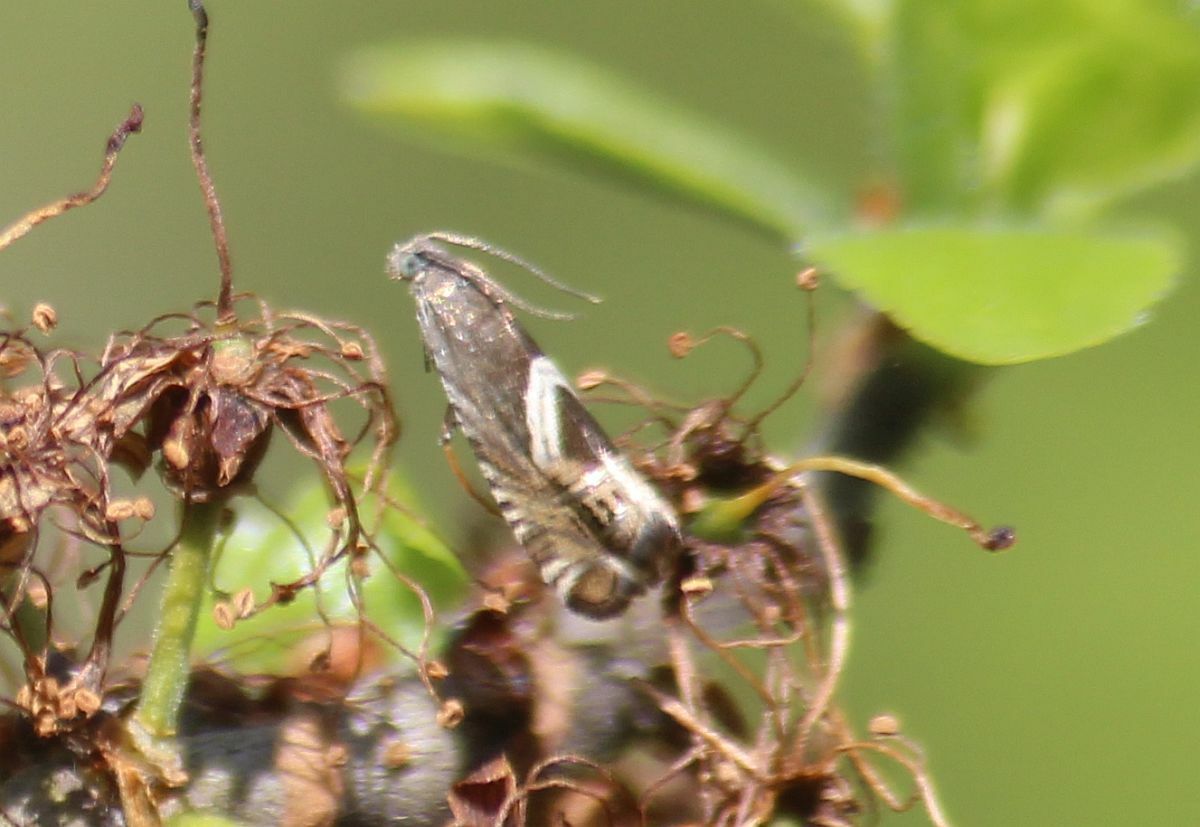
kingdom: Animalia
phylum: Arthropoda
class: Insecta
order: Lepidoptera
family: Tortricidae
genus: Grapholita
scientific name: Grapholita
